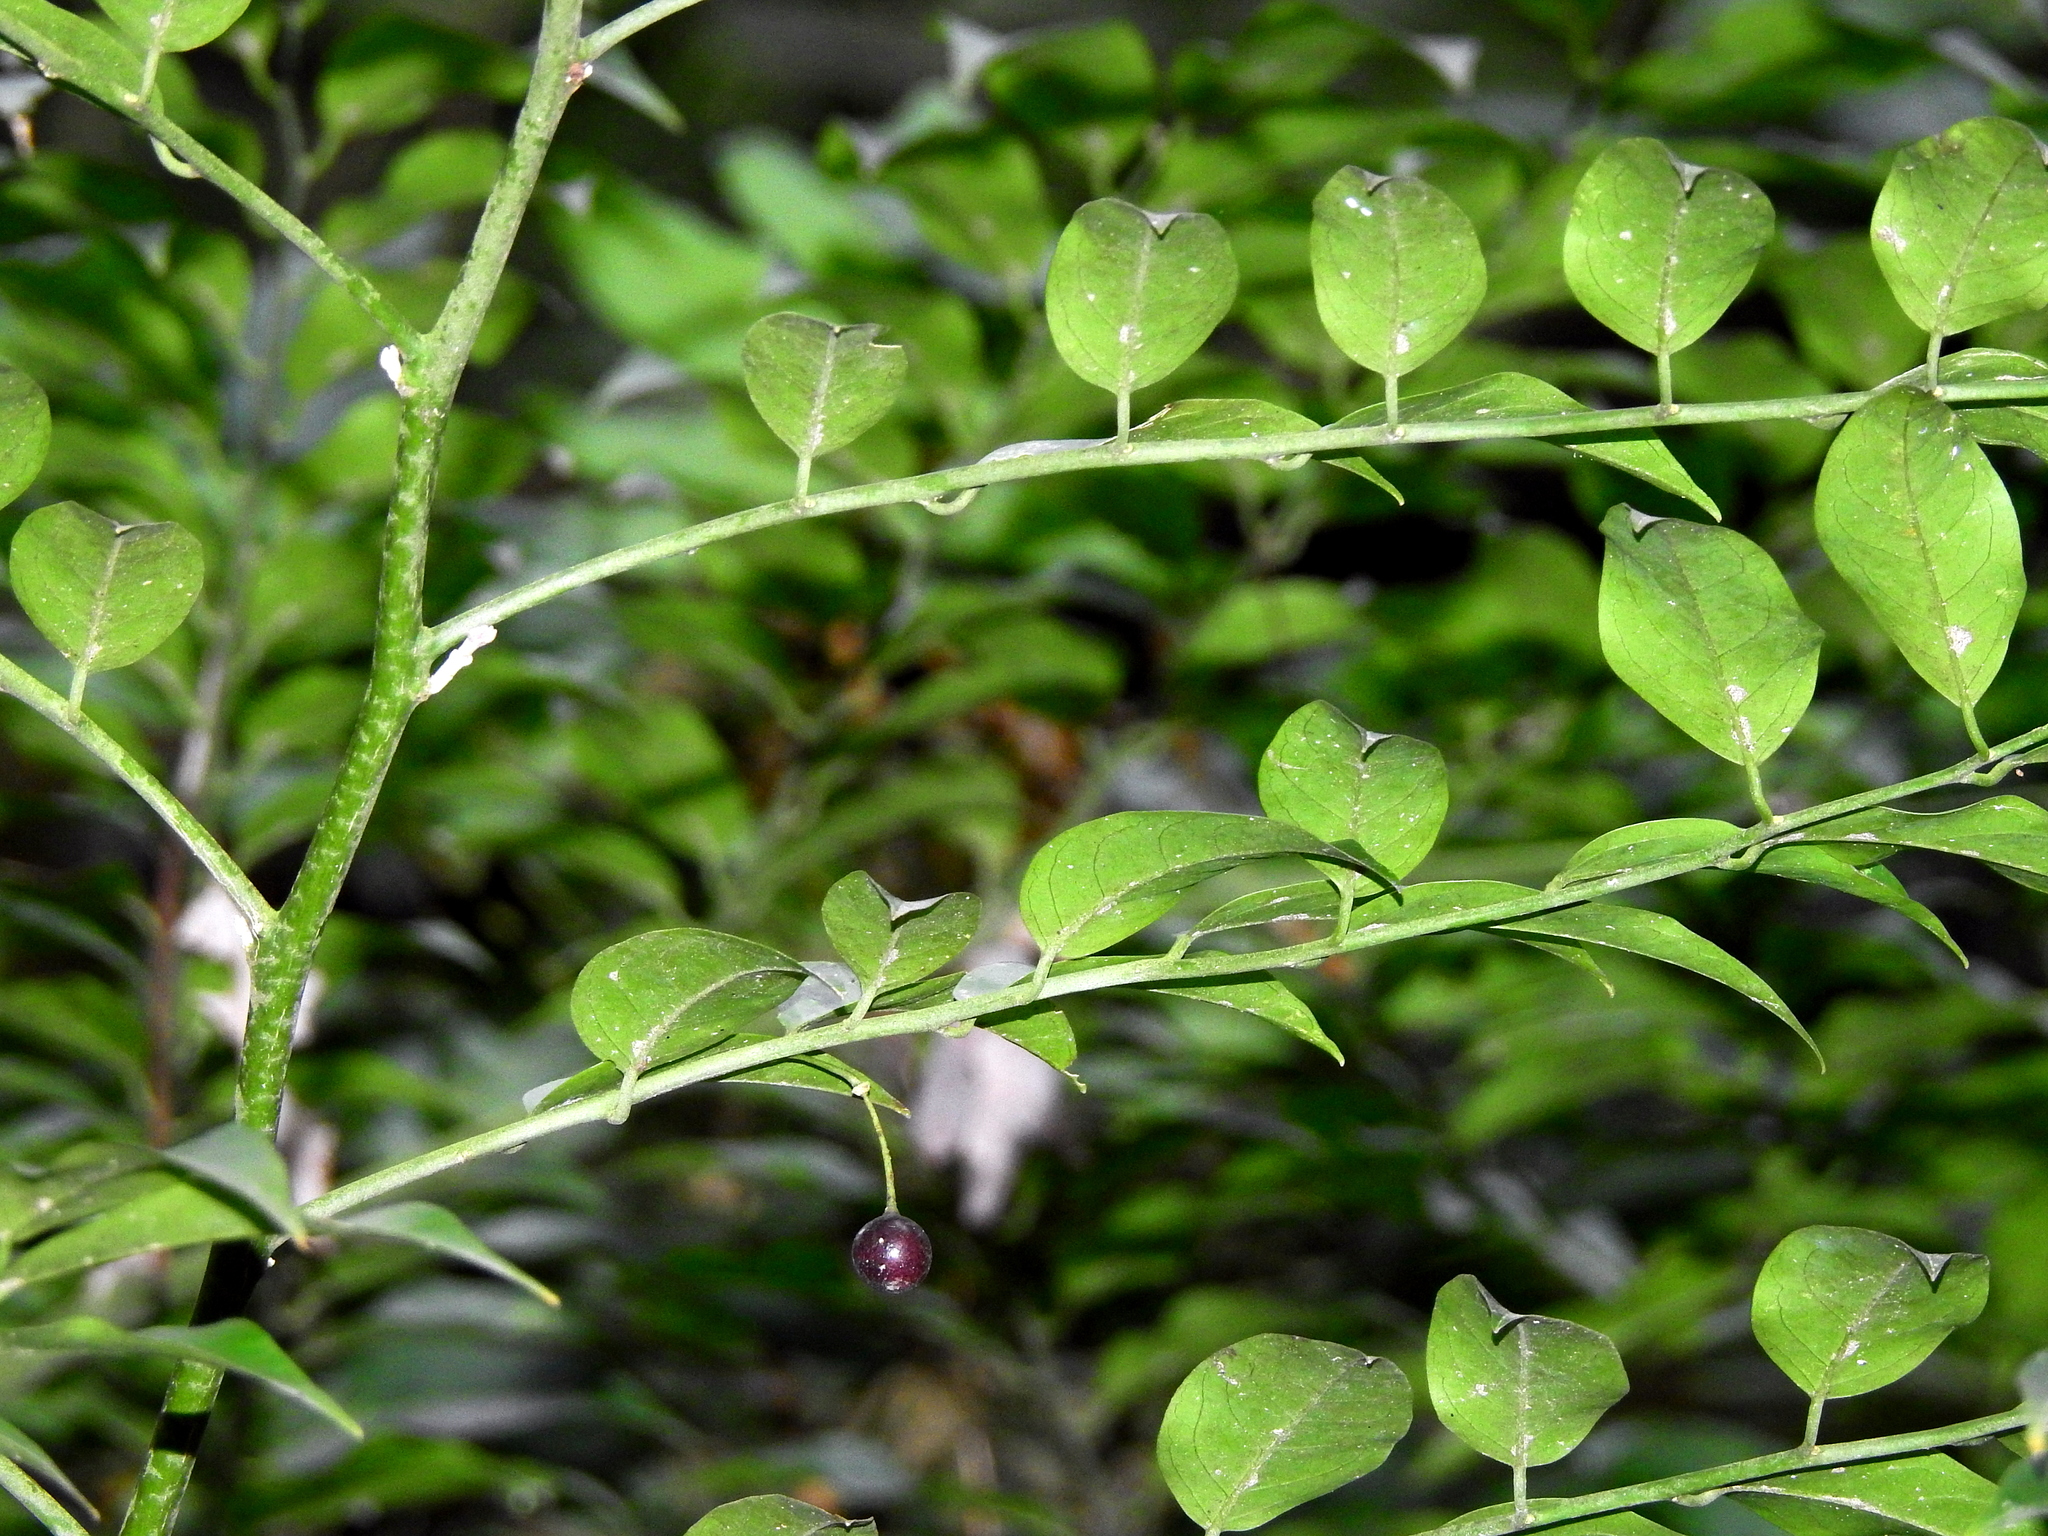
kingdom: Plantae
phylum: Tracheophyta
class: Magnoliopsida
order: Brassicales
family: Capparaceae
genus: Capparis
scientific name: Capparis sabiifolia
